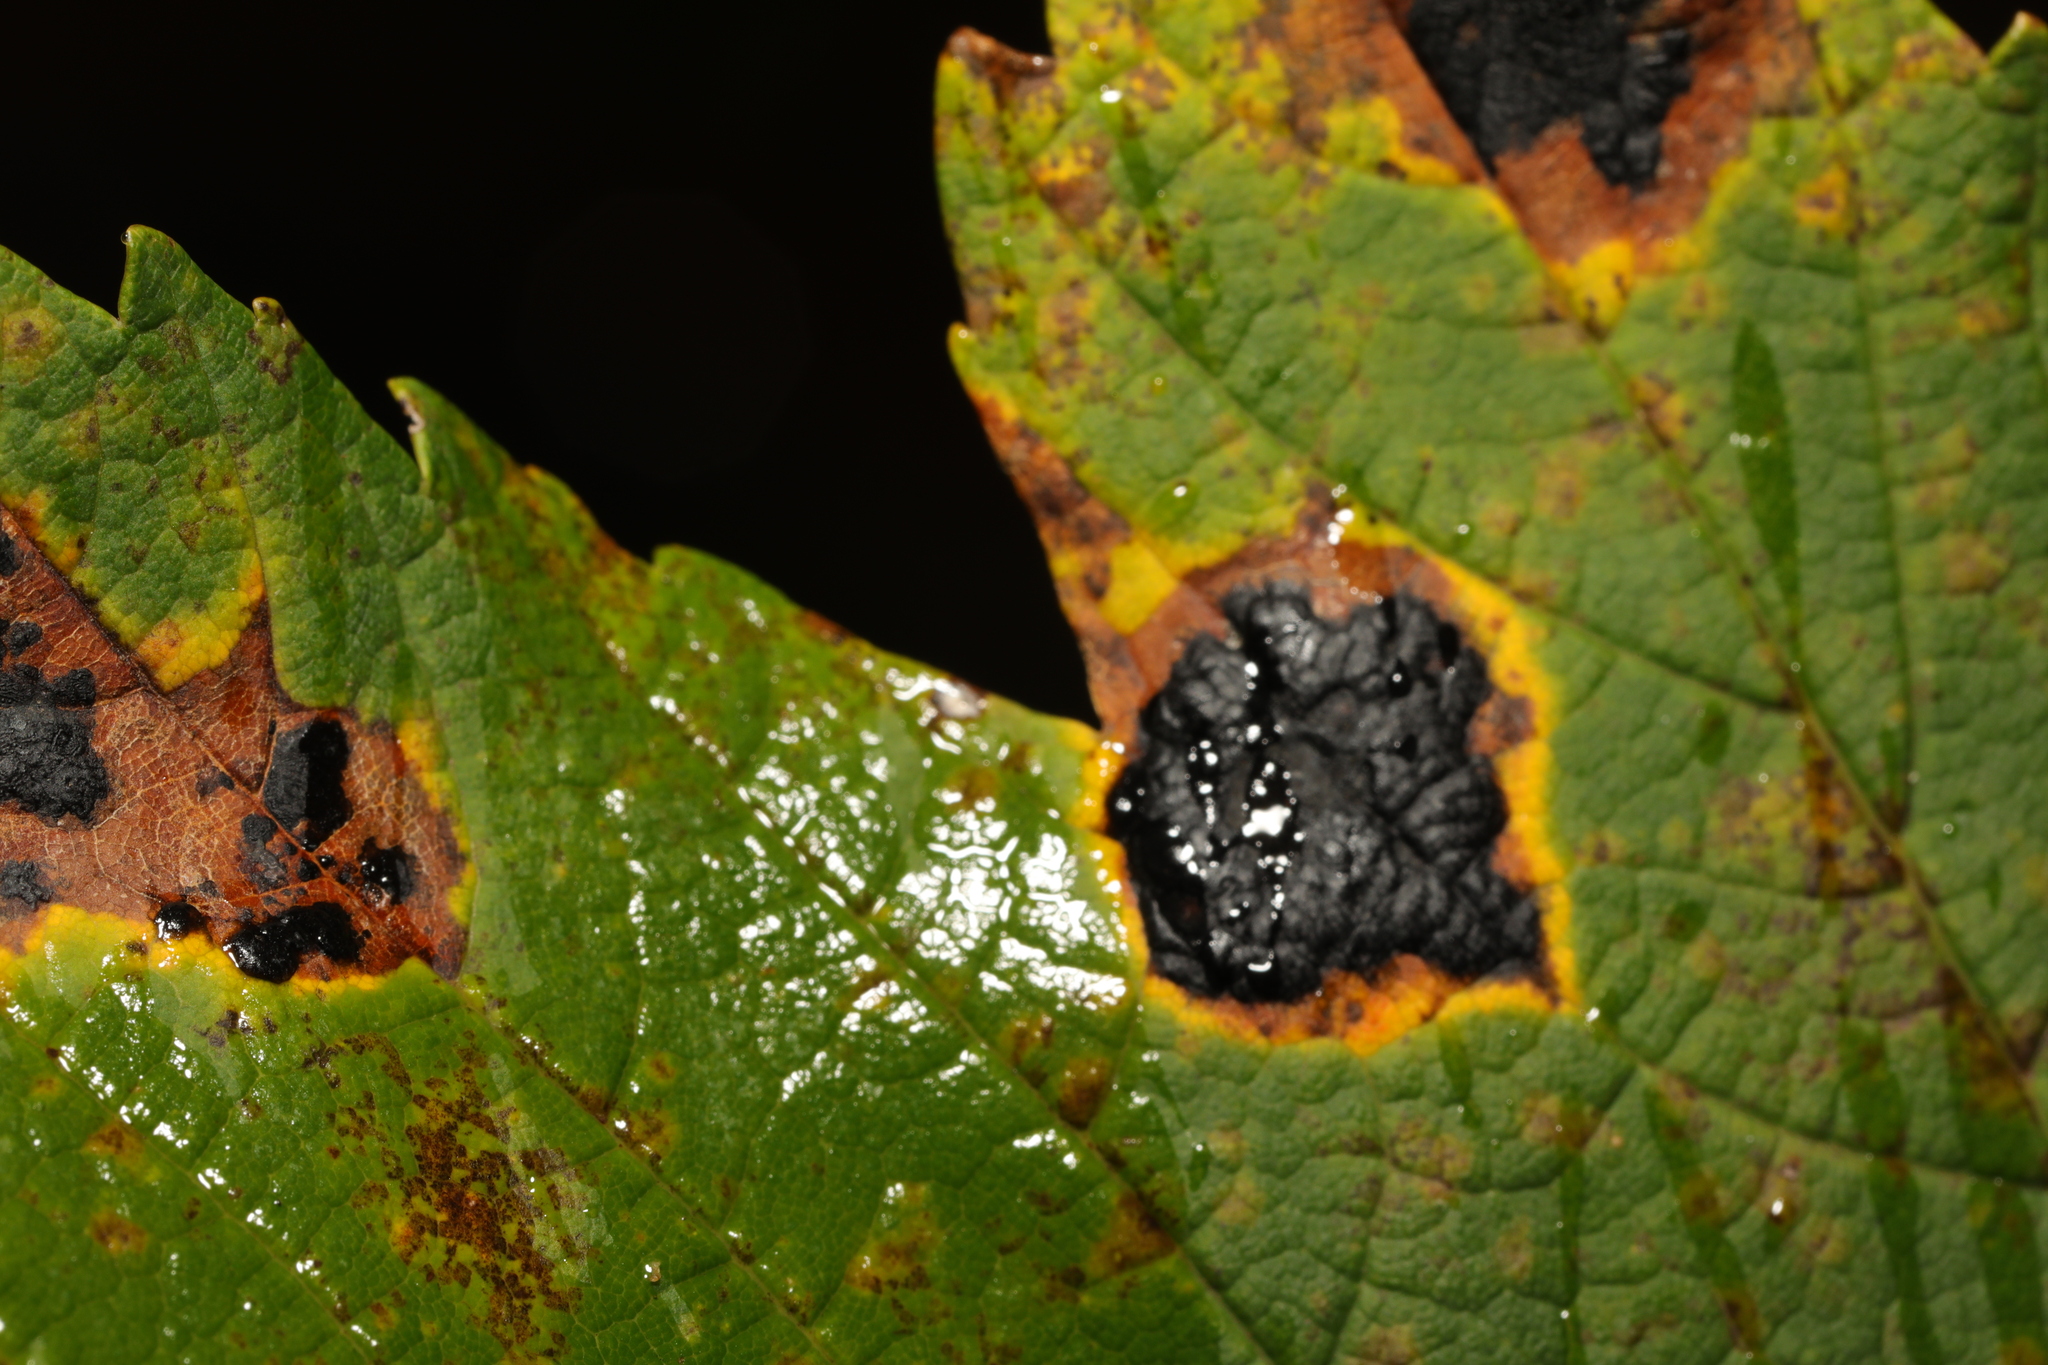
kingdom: Fungi
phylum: Ascomycota
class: Leotiomycetes
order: Rhytismatales
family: Rhytismataceae
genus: Rhytisma
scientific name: Rhytisma acerinum
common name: European tar spot
